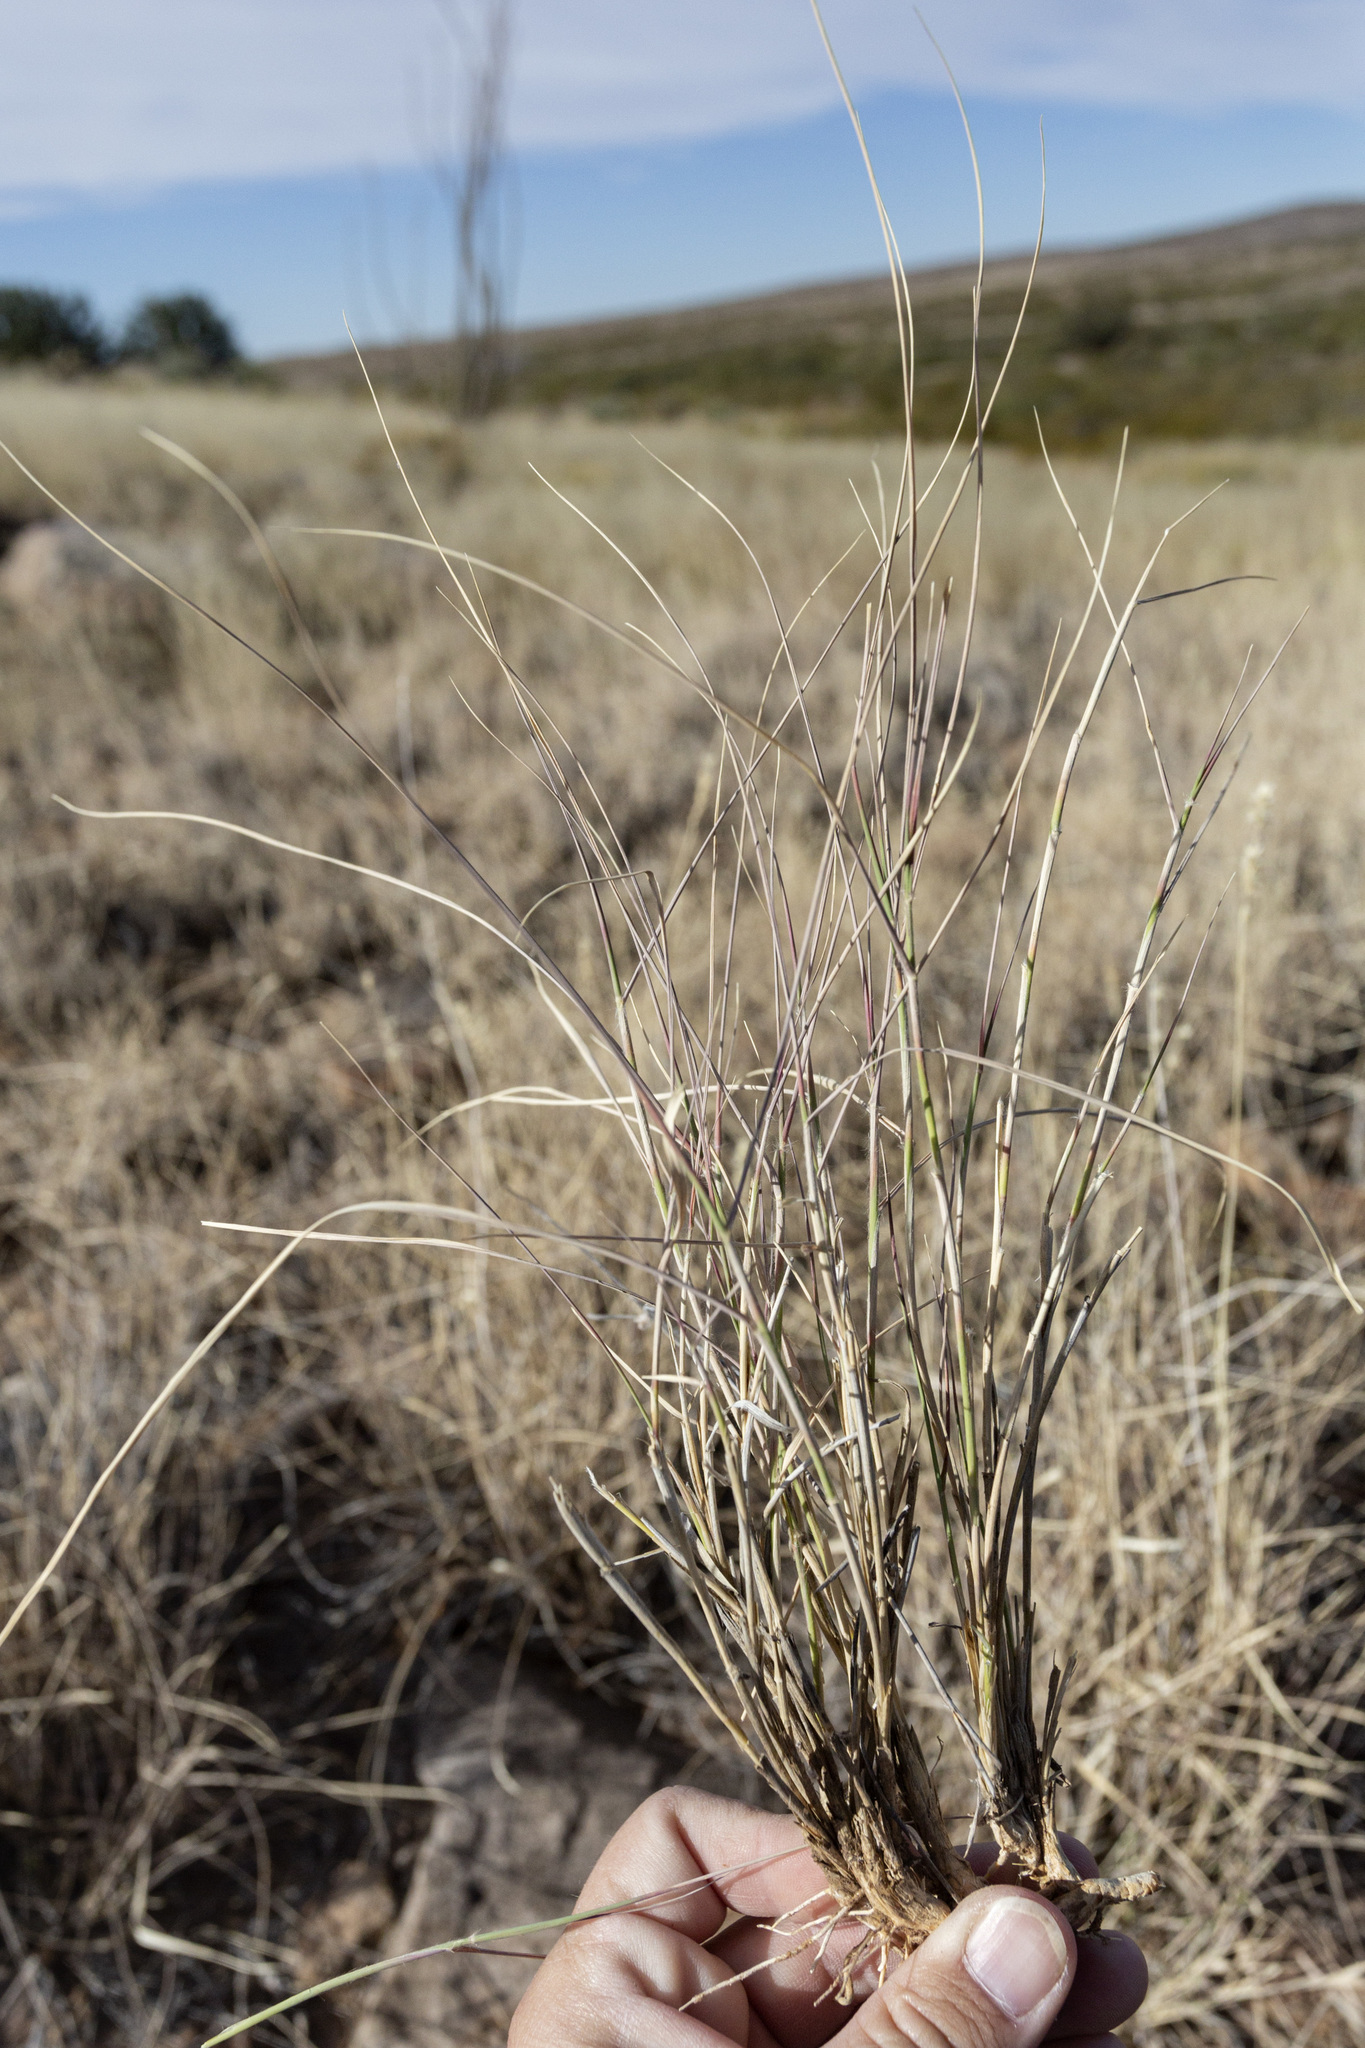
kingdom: Plantae
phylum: Tracheophyta
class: Liliopsida
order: Poales
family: Poaceae
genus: Hilaria
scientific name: Hilaria mutica
